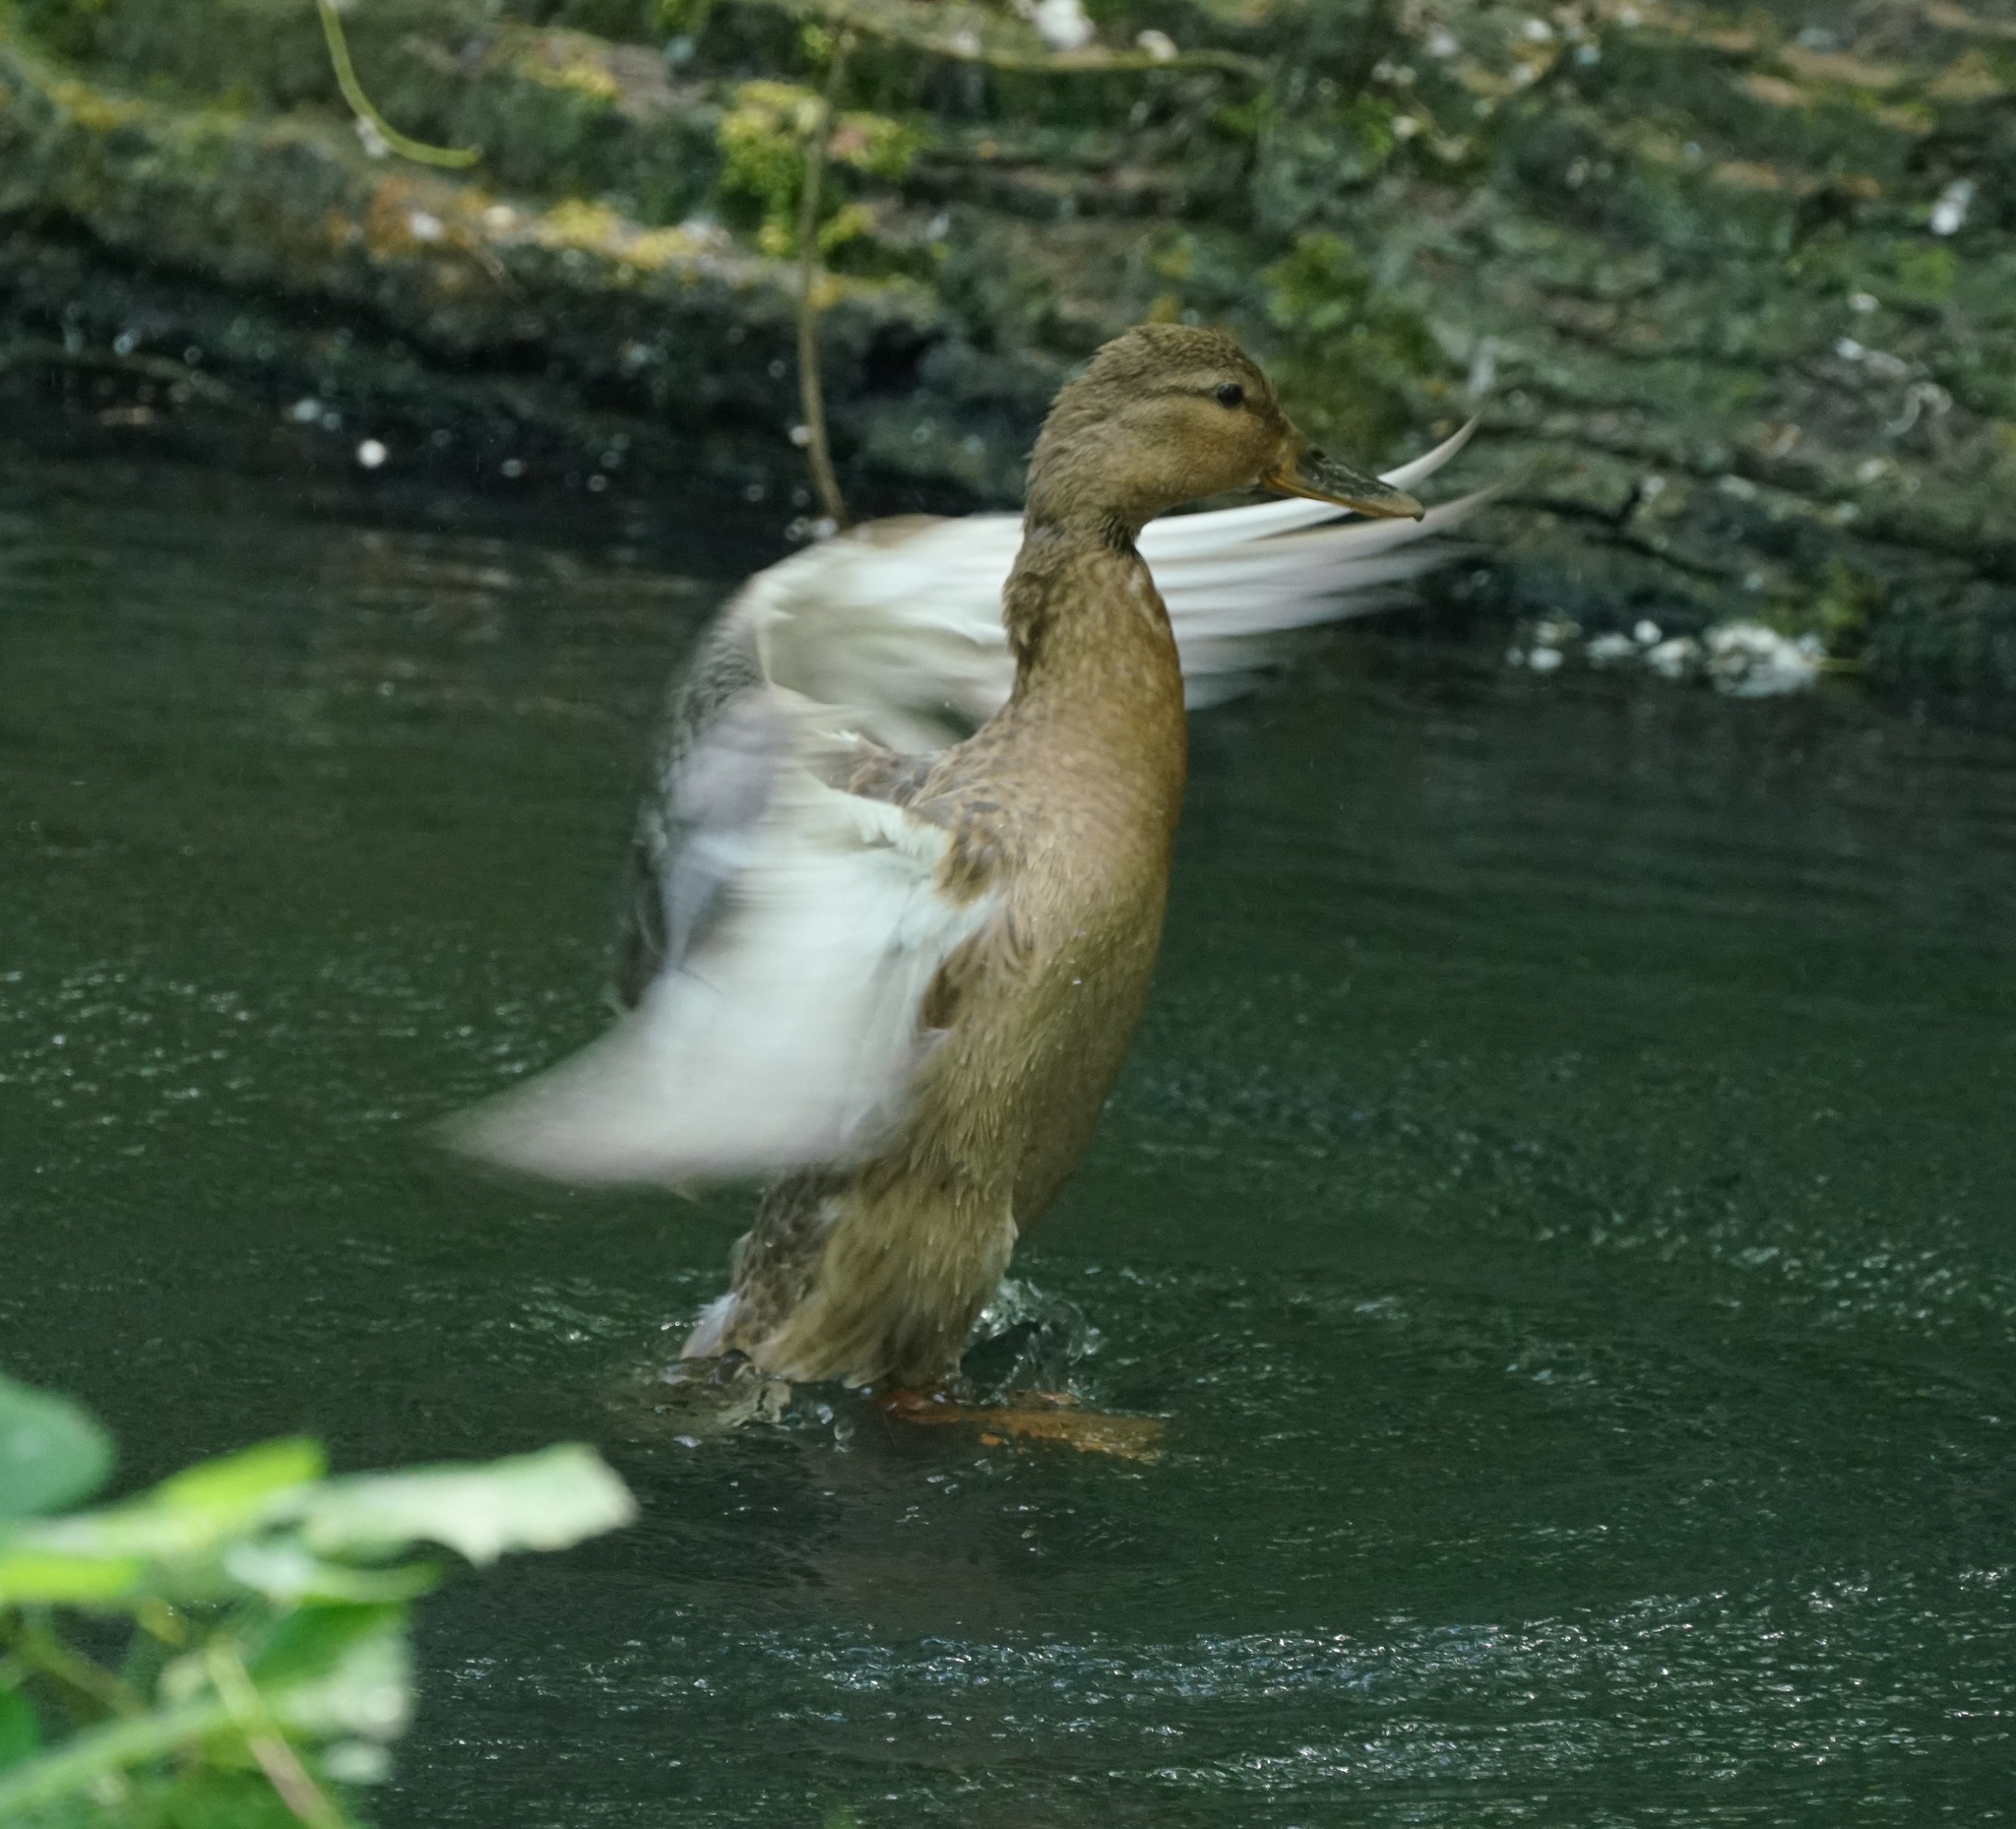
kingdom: Animalia
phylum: Chordata
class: Aves
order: Anseriformes
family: Anatidae
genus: Anas
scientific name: Anas platyrhynchos
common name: Mallard
